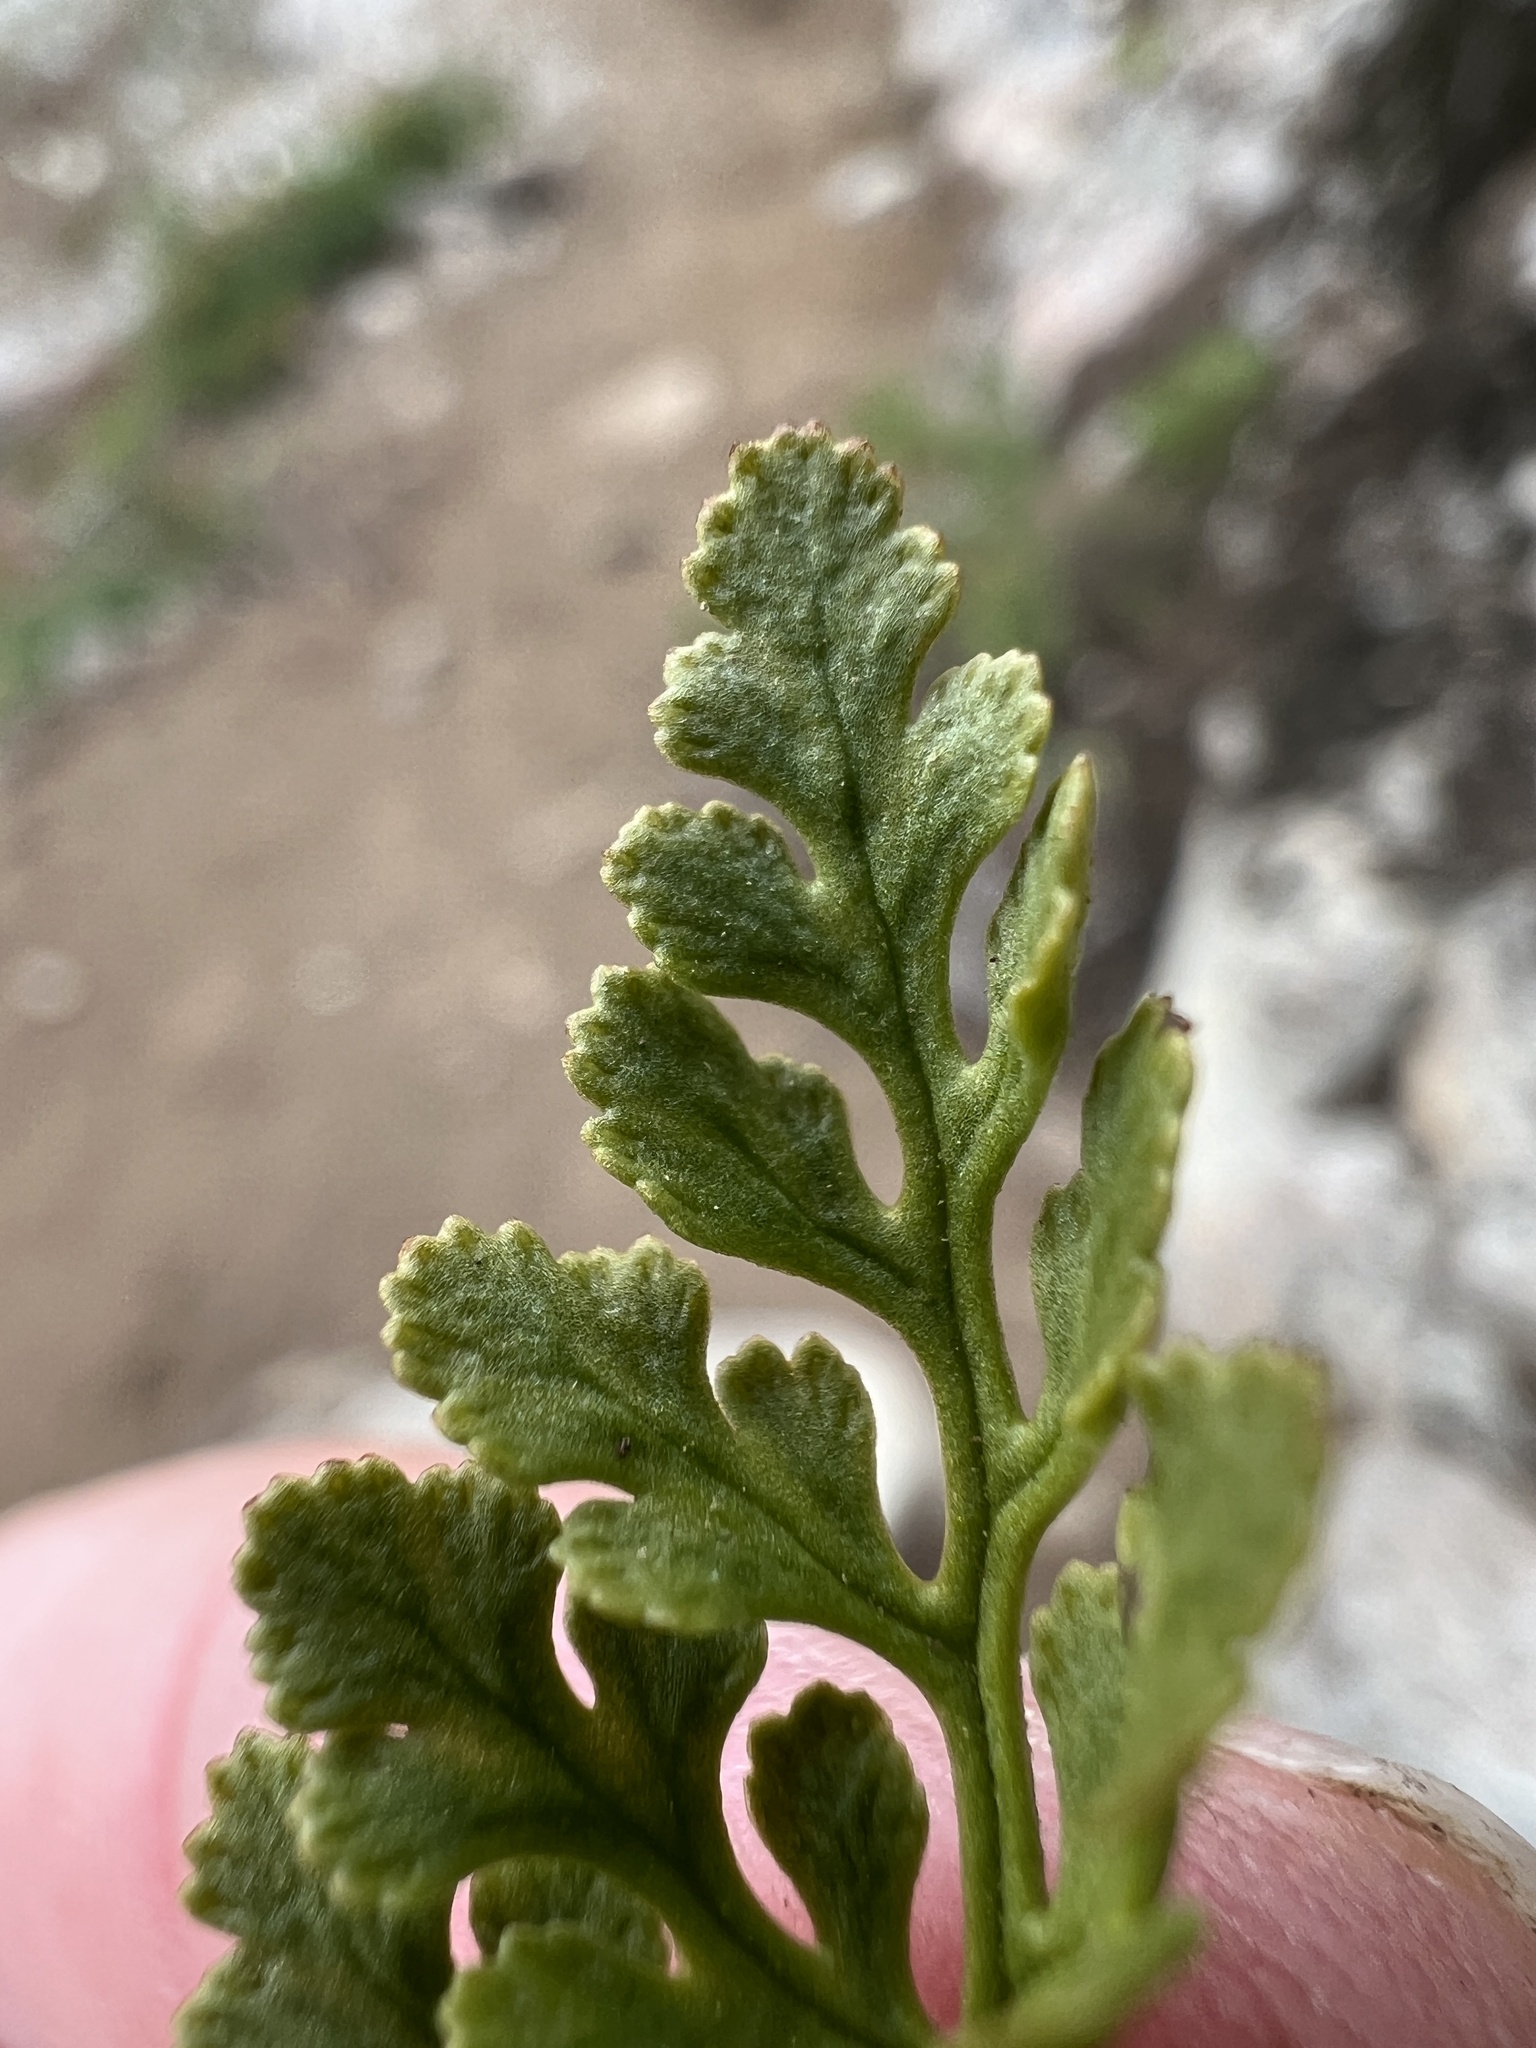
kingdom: Plantae
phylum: Tracheophyta
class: Polypodiopsida
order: Polypodiales
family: Pteridaceae
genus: Cryptogramma
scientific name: Cryptogramma acrostichoides
